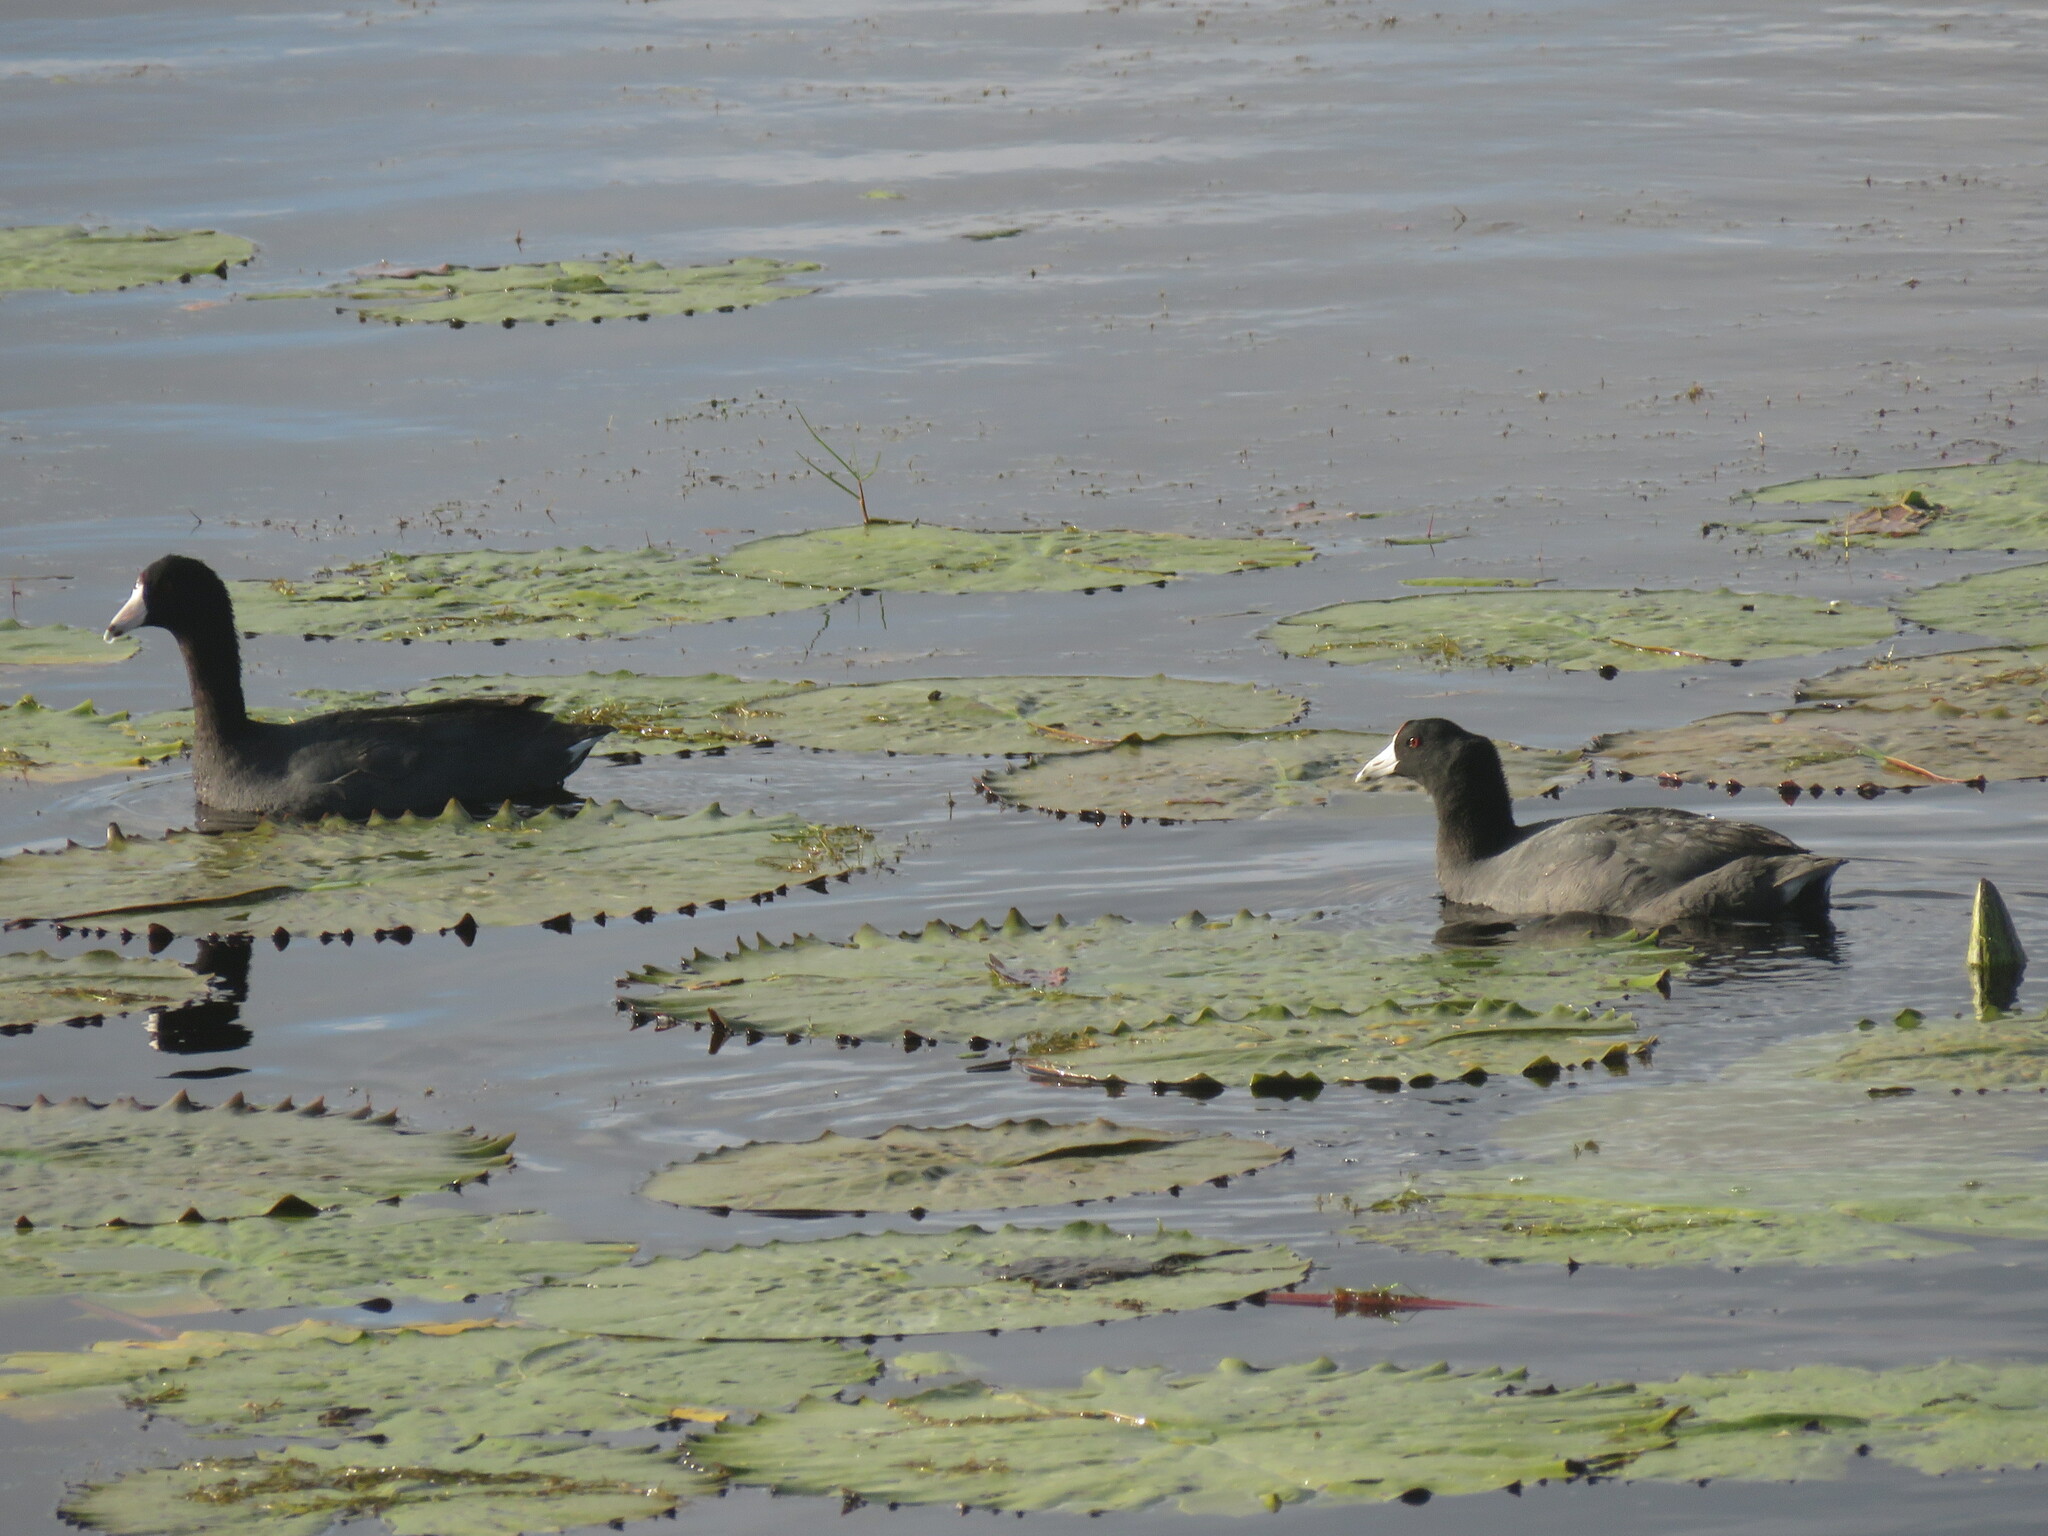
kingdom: Animalia
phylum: Chordata
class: Aves
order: Gruiformes
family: Rallidae
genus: Fulica
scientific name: Fulica americana
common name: American coot
